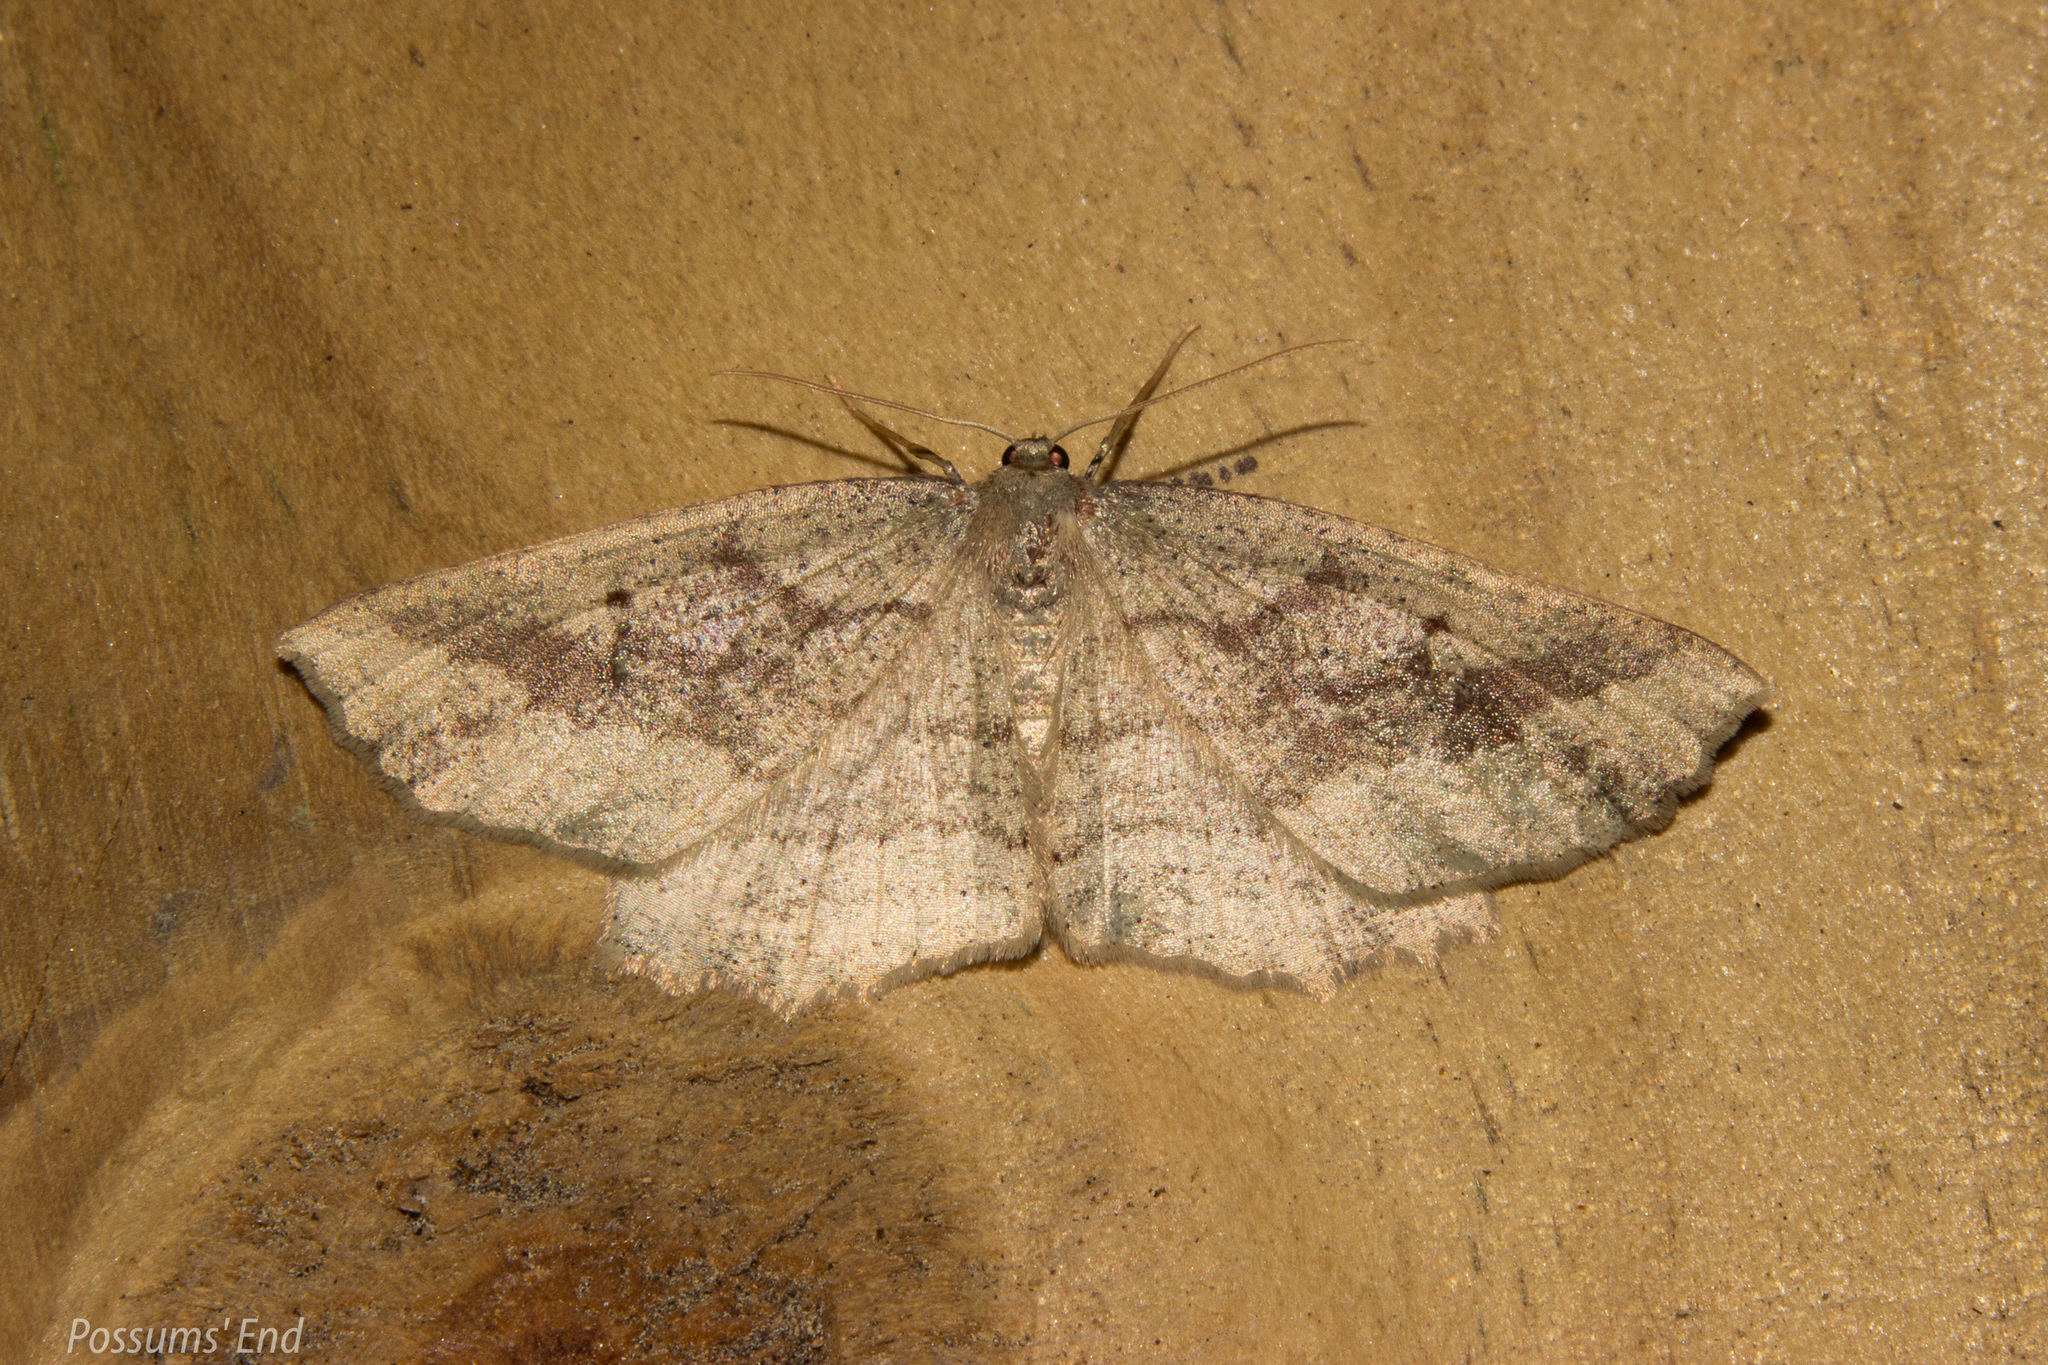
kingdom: Animalia
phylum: Arthropoda
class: Insecta
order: Lepidoptera
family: Geometridae
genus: Xyridacma
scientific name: Xyridacma veronicae
